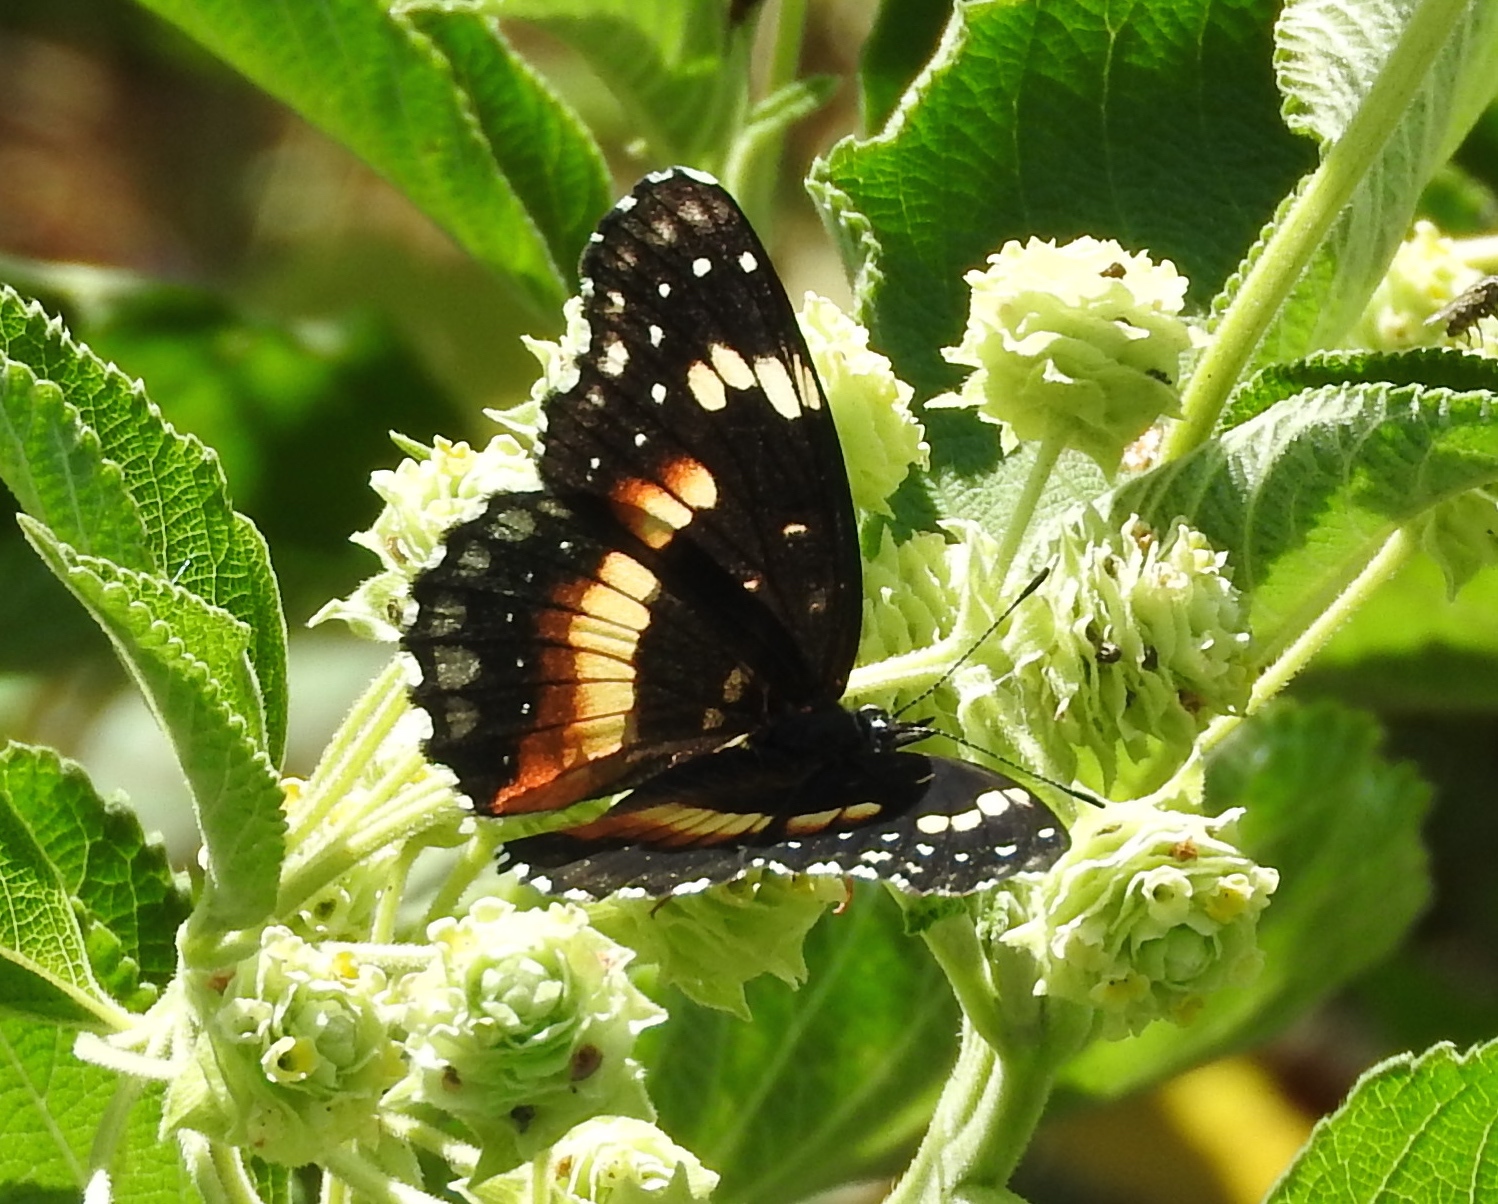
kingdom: Animalia
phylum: Arthropoda
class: Insecta
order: Lepidoptera
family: Nymphalidae
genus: Chlosyne
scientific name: Chlosyne lacinia
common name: Bordered patch
